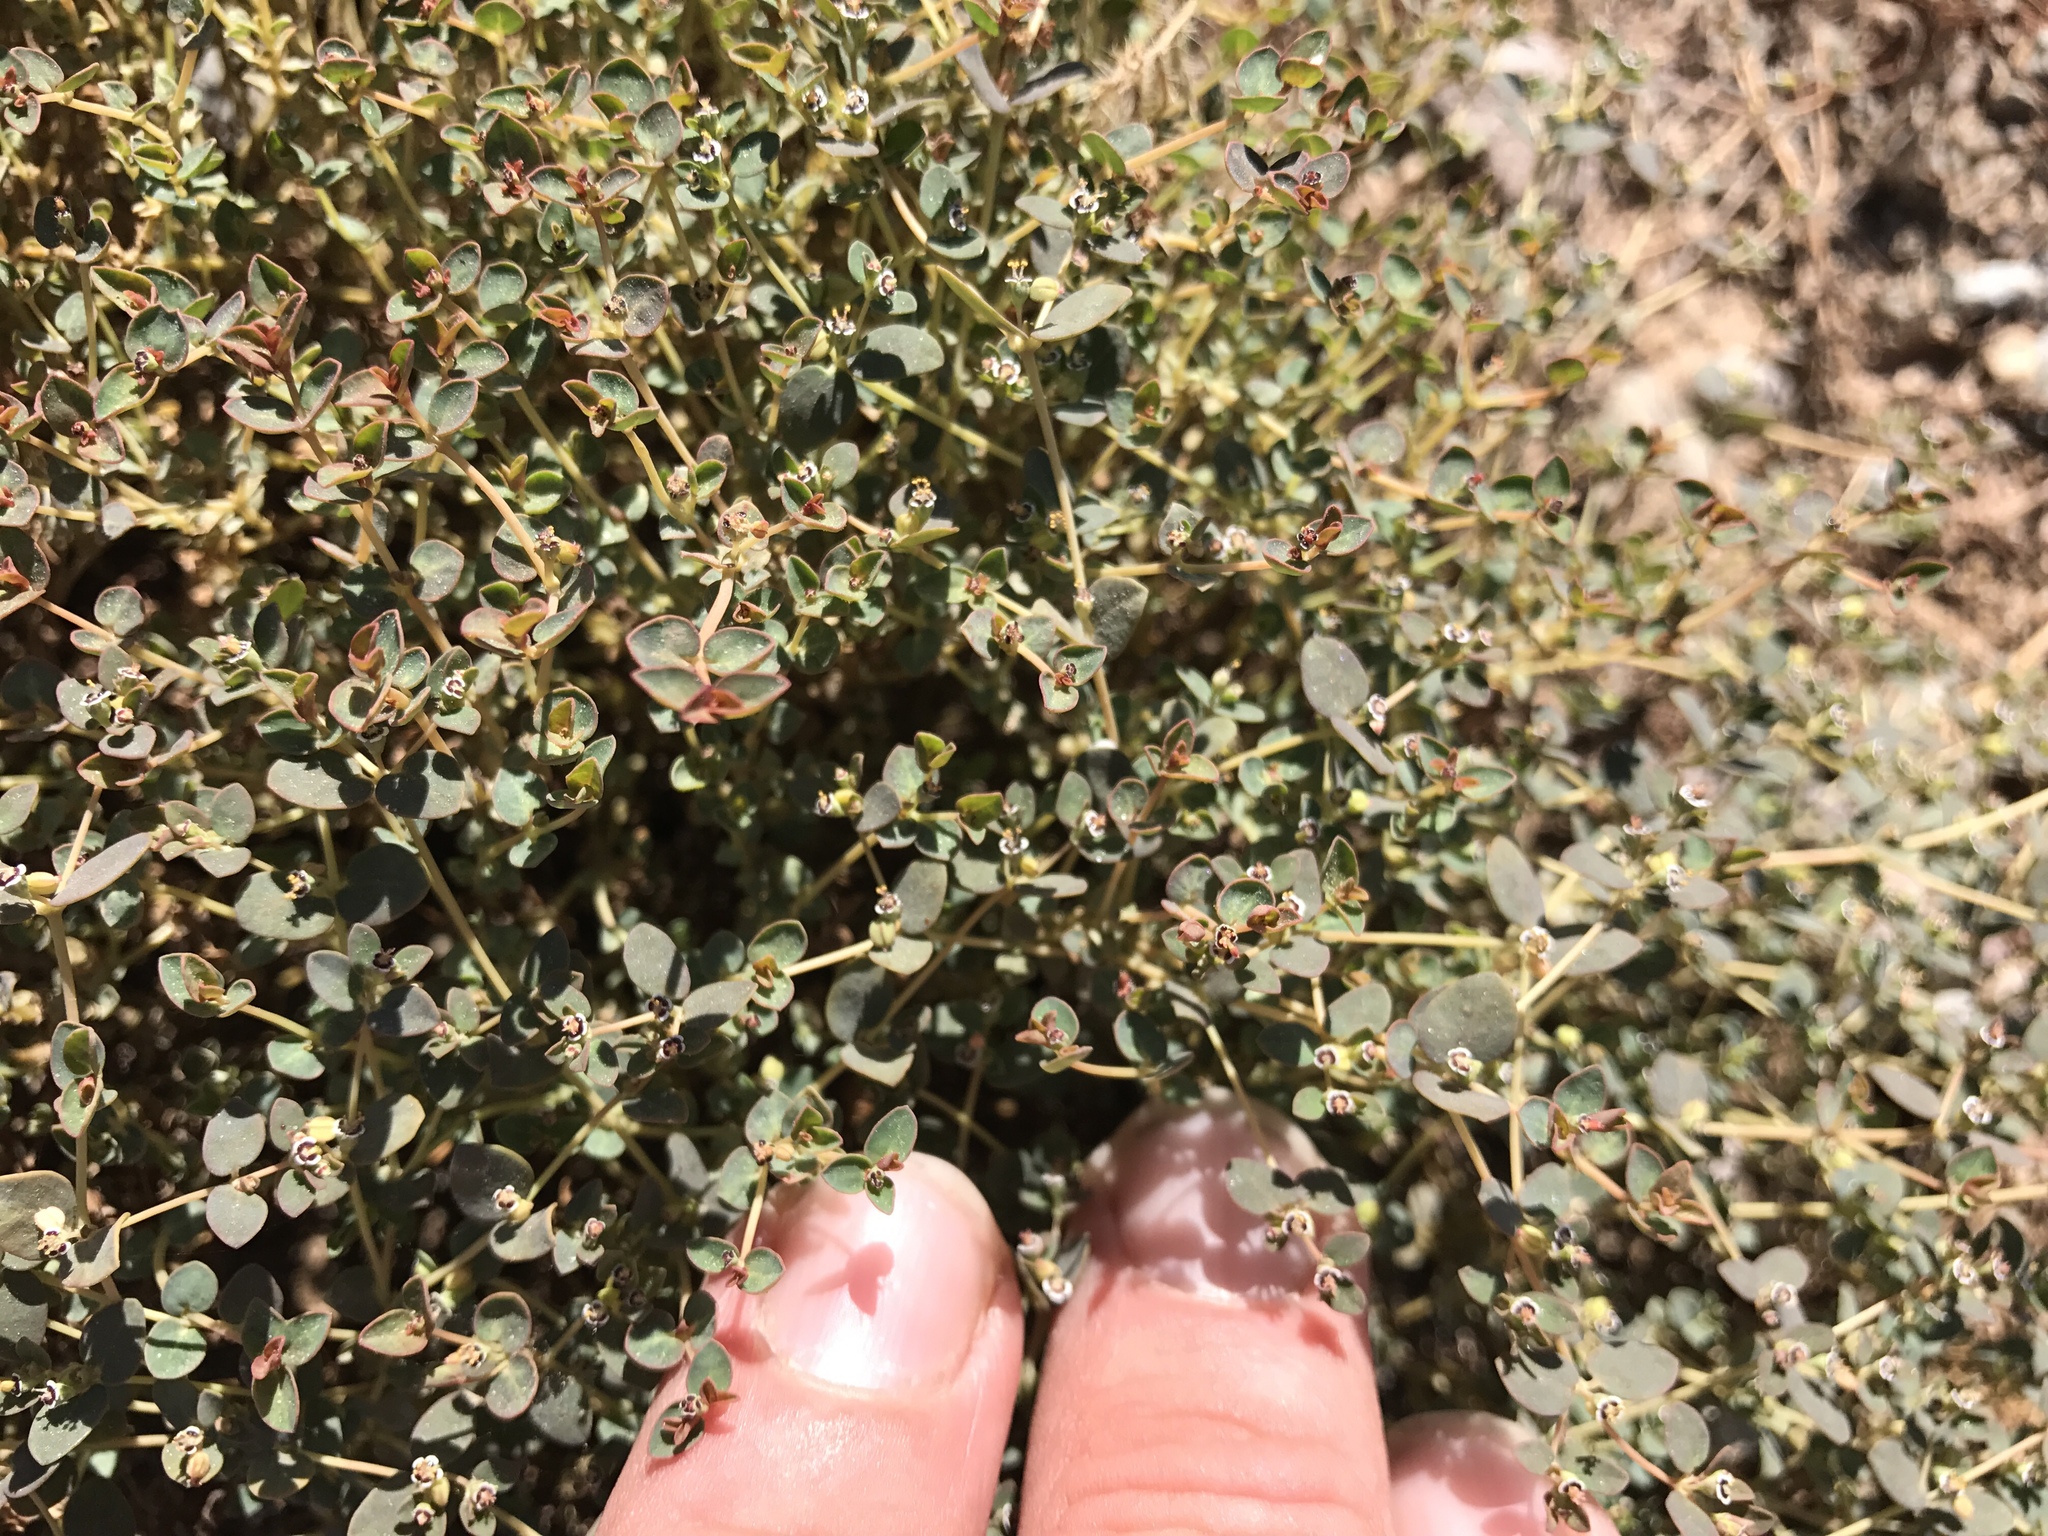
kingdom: Plantae
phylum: Tracheophyta
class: Magnoliopsida
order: Malpighiales
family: Euphorbiaceae
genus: Euphorbia
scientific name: Euphorbia polycarpa
